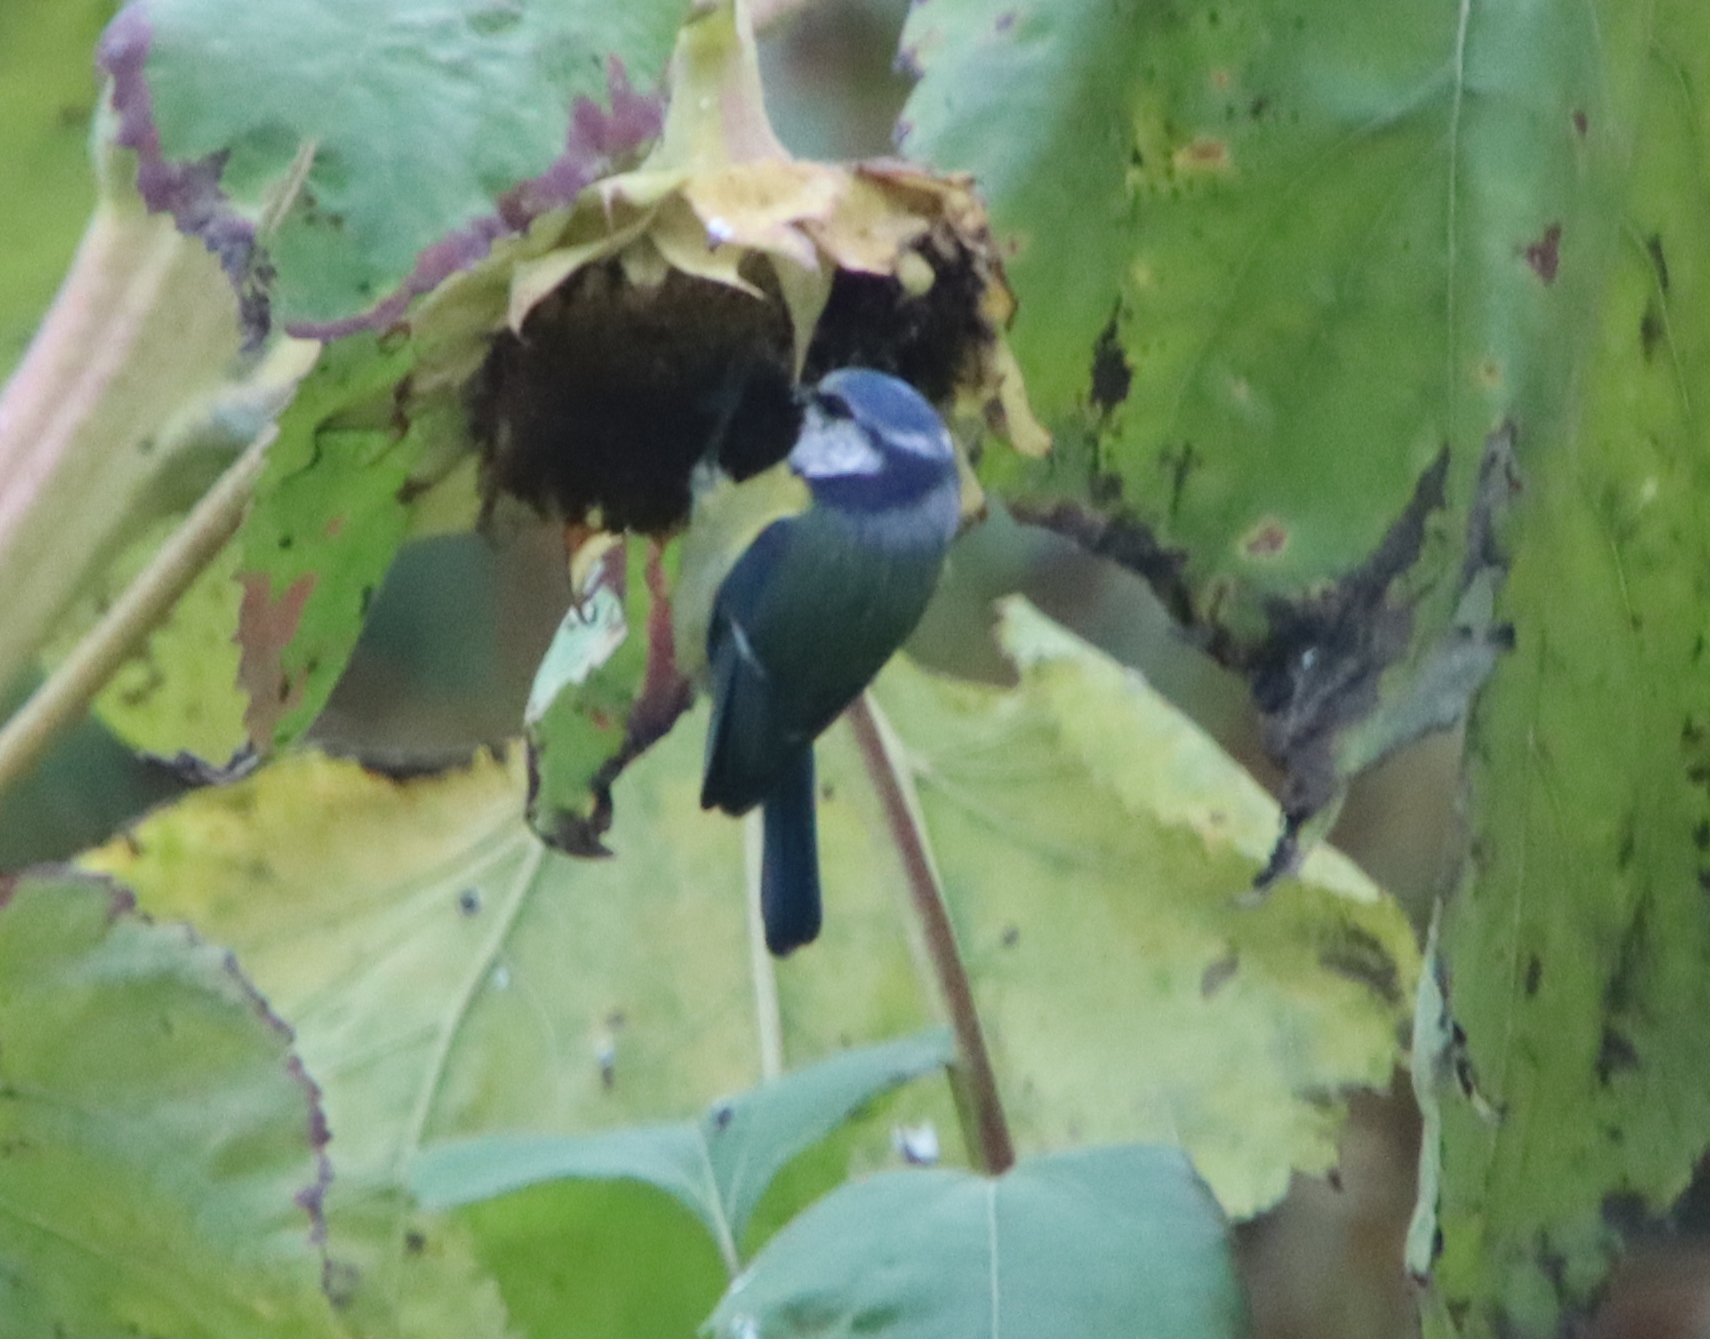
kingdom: Animalia
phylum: Chordata
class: Aves
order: Passeriformes
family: Paridae
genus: Cyanistes
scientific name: Cyanistes caeruleus
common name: Eurasian blue tit
